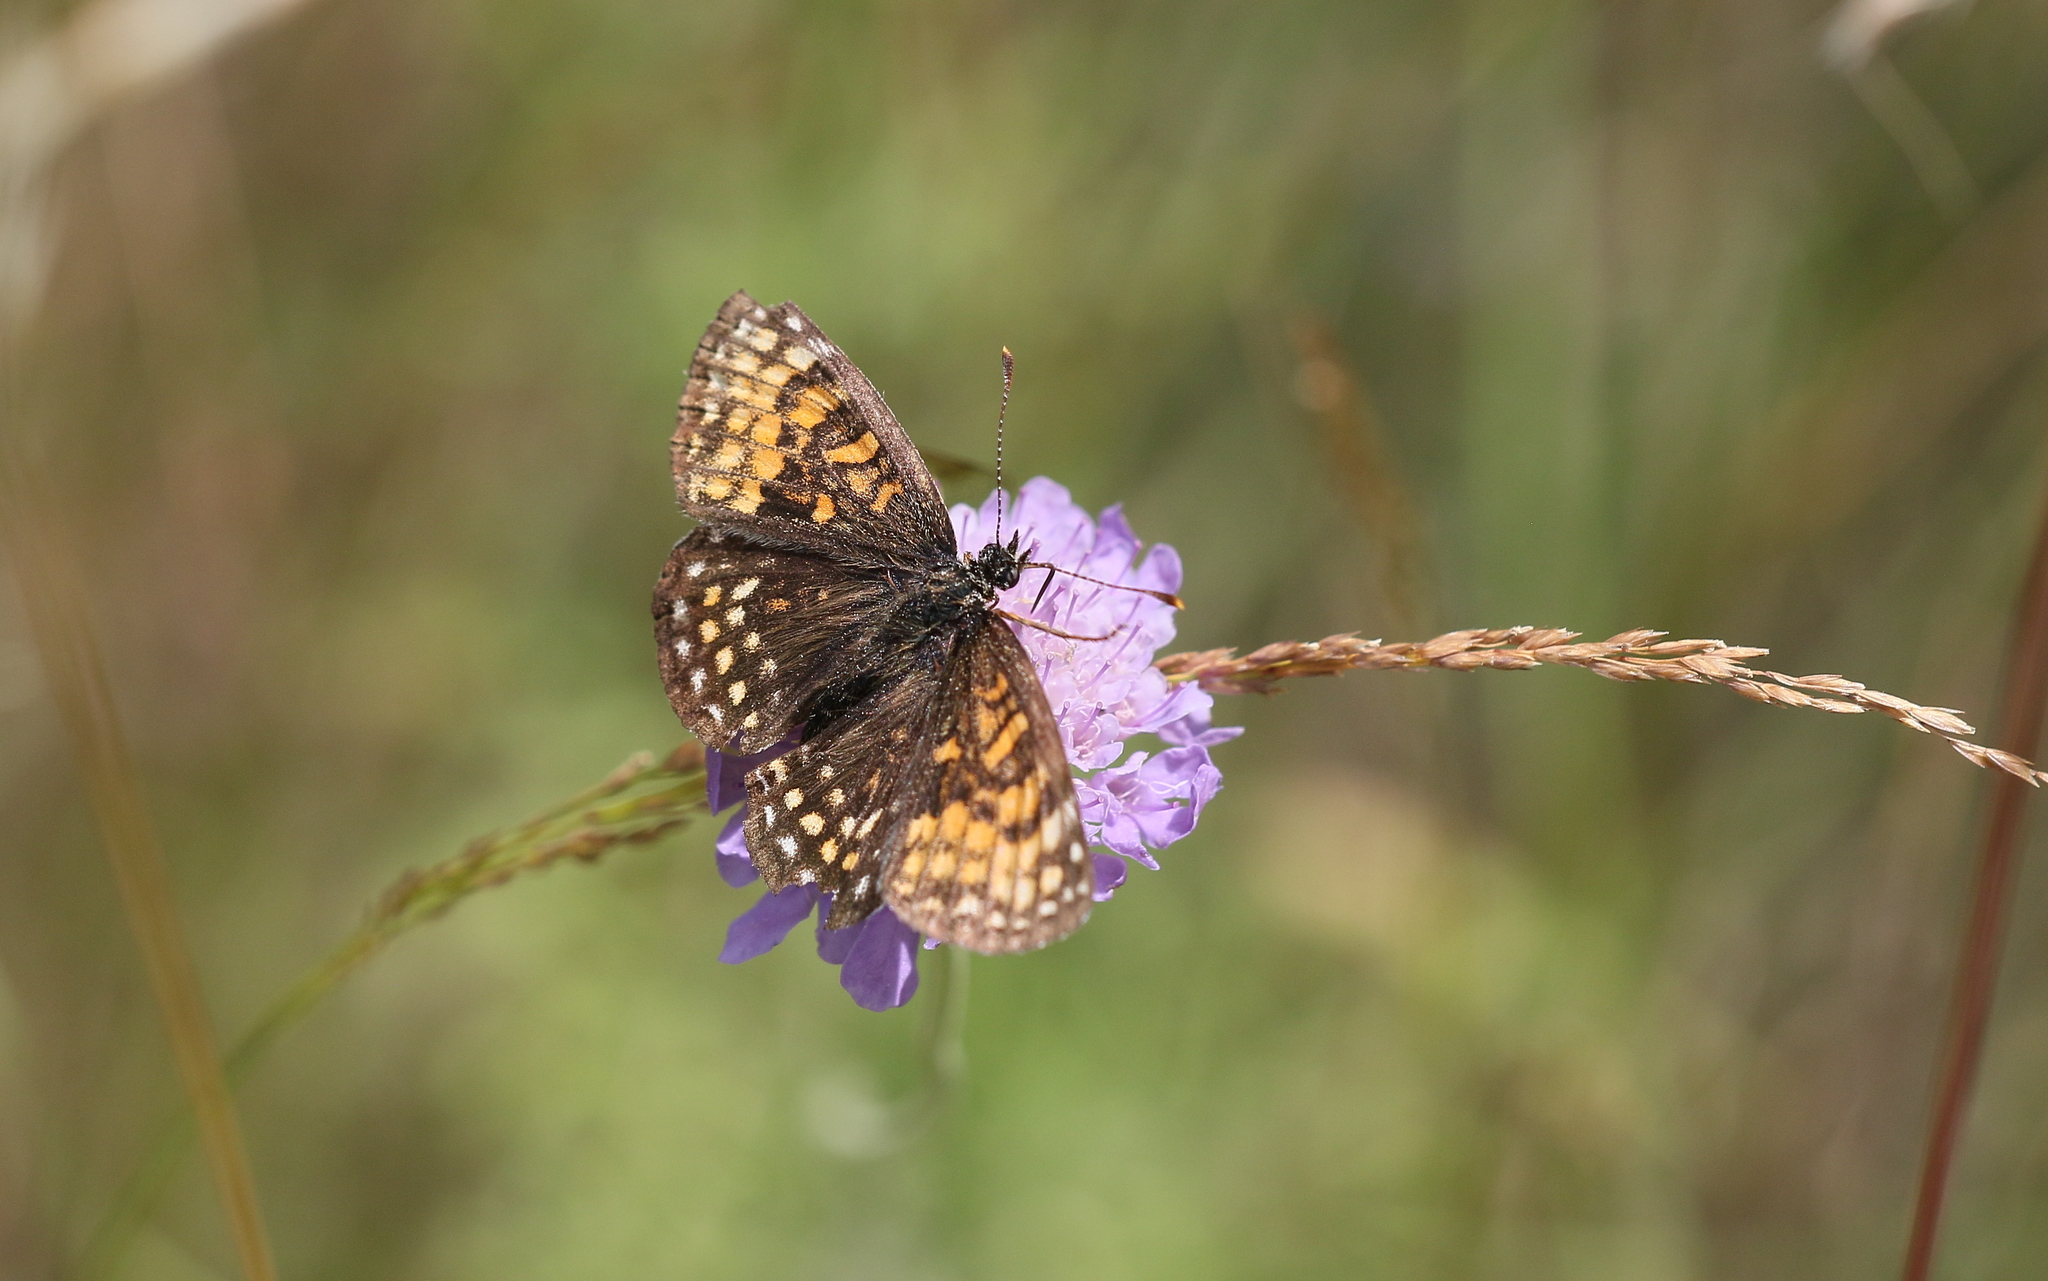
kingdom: Animalia
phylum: Arthropoda
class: Insecta
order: Lepidoptera
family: Nymphalidae
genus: Melitaea
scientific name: Melitaea diamina
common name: False heath fritillary
